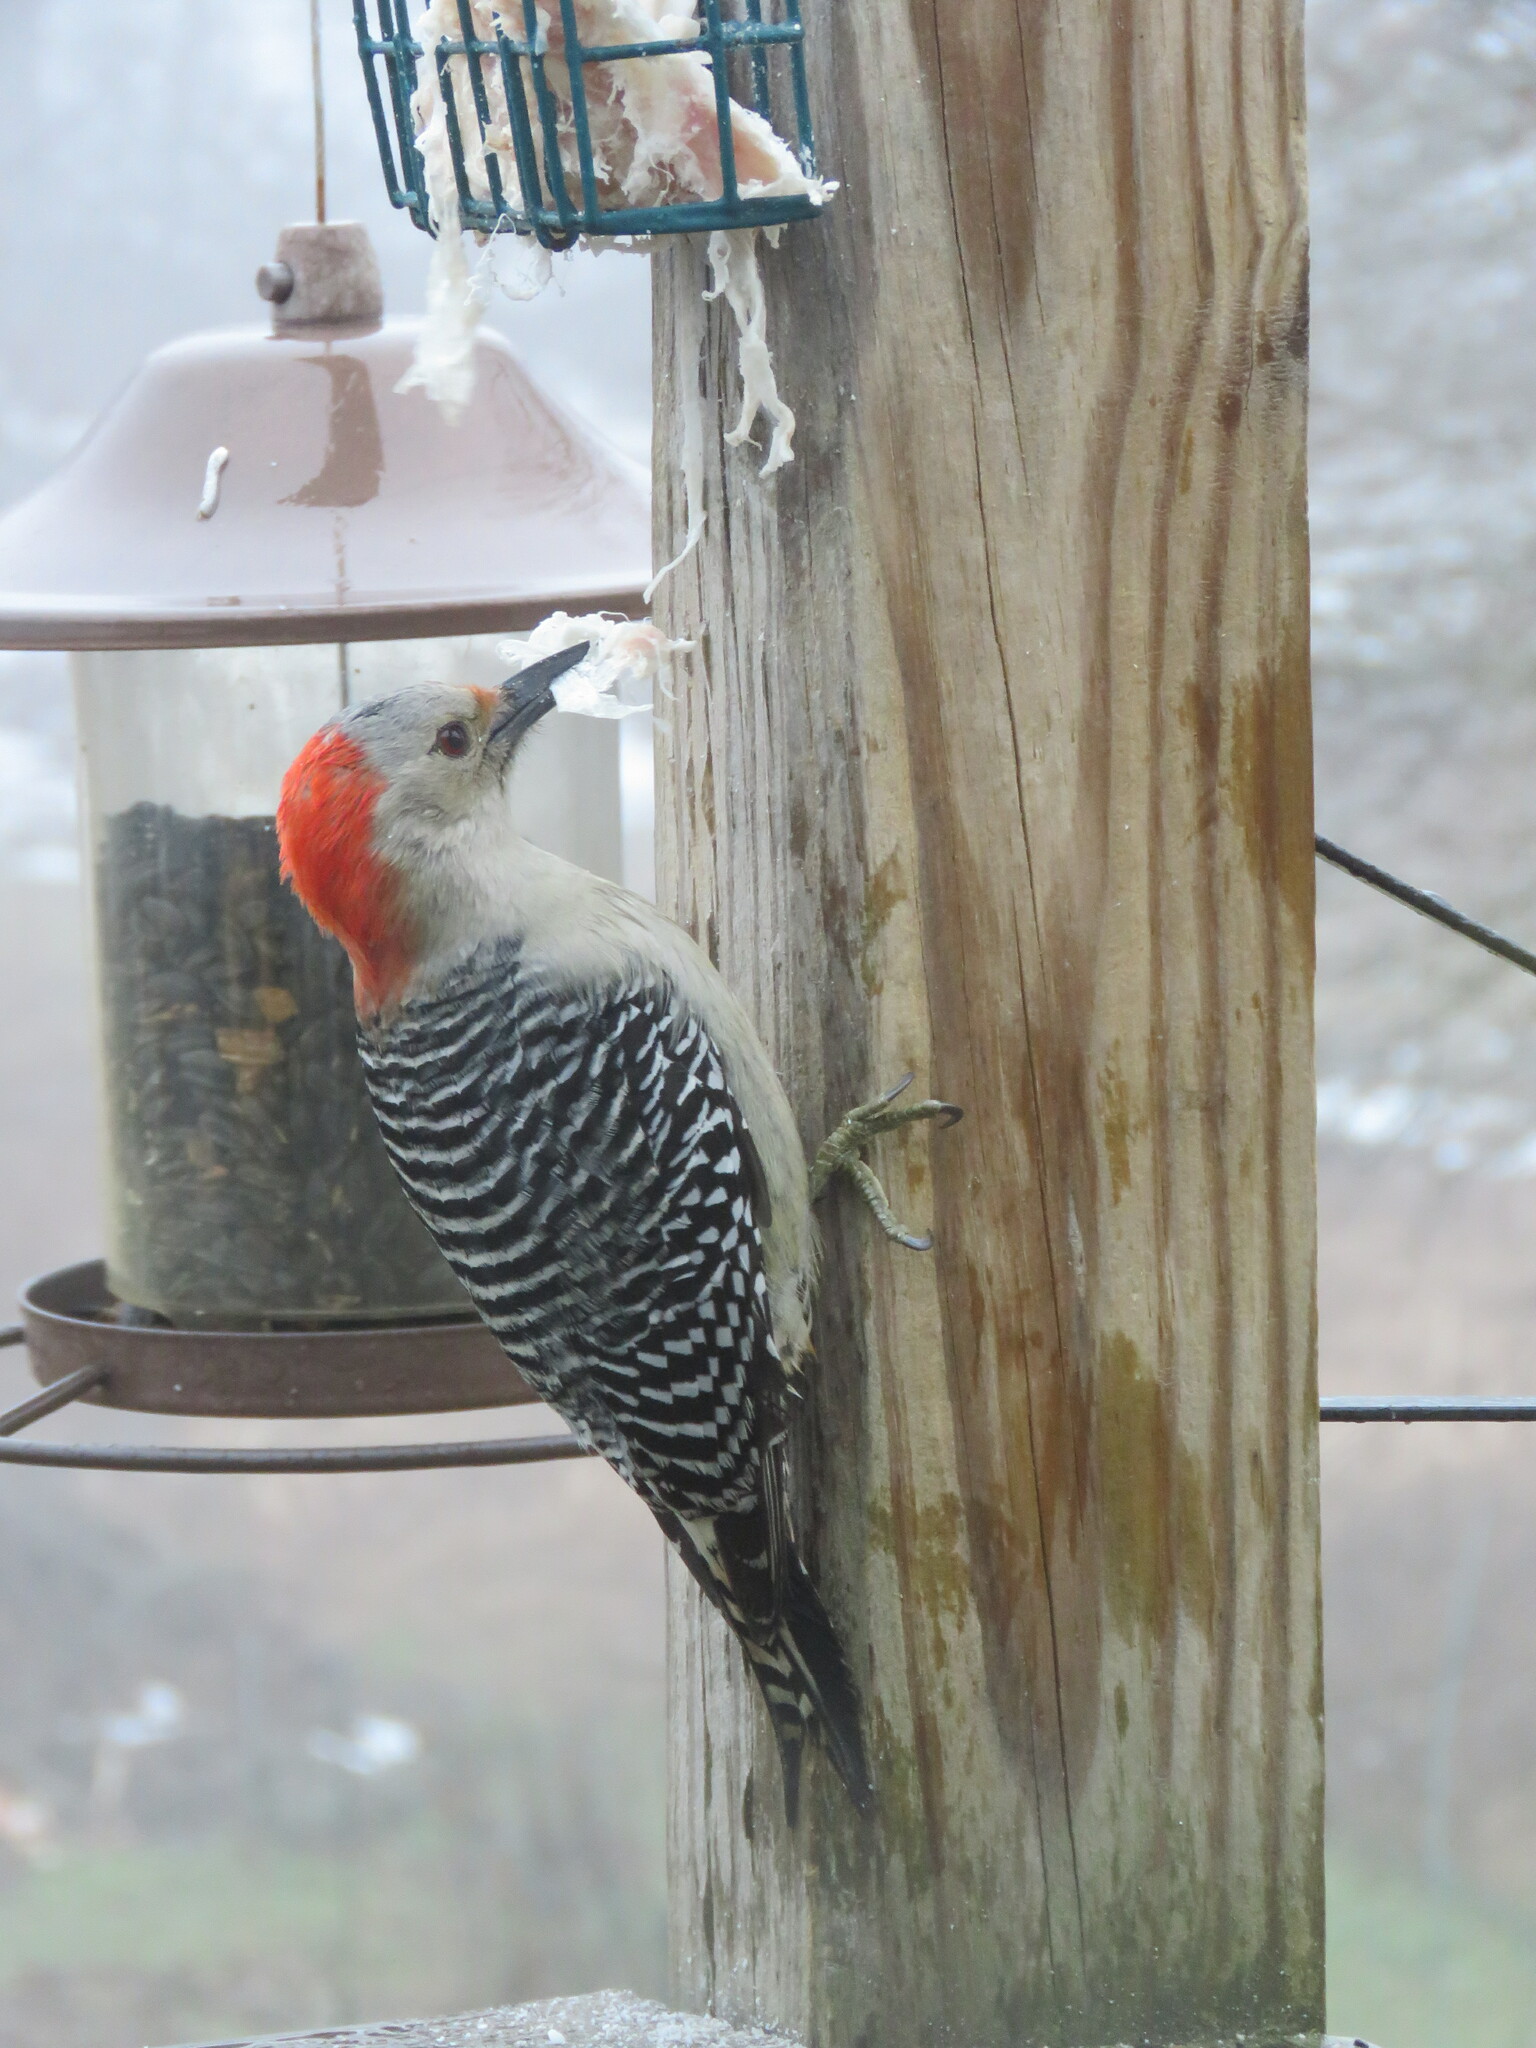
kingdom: Animalia
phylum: Chordata
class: Aves
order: Piciformes
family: Picidae
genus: Melanerpes
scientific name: Melanerpes carolinus
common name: Red-bellied woodpecker
